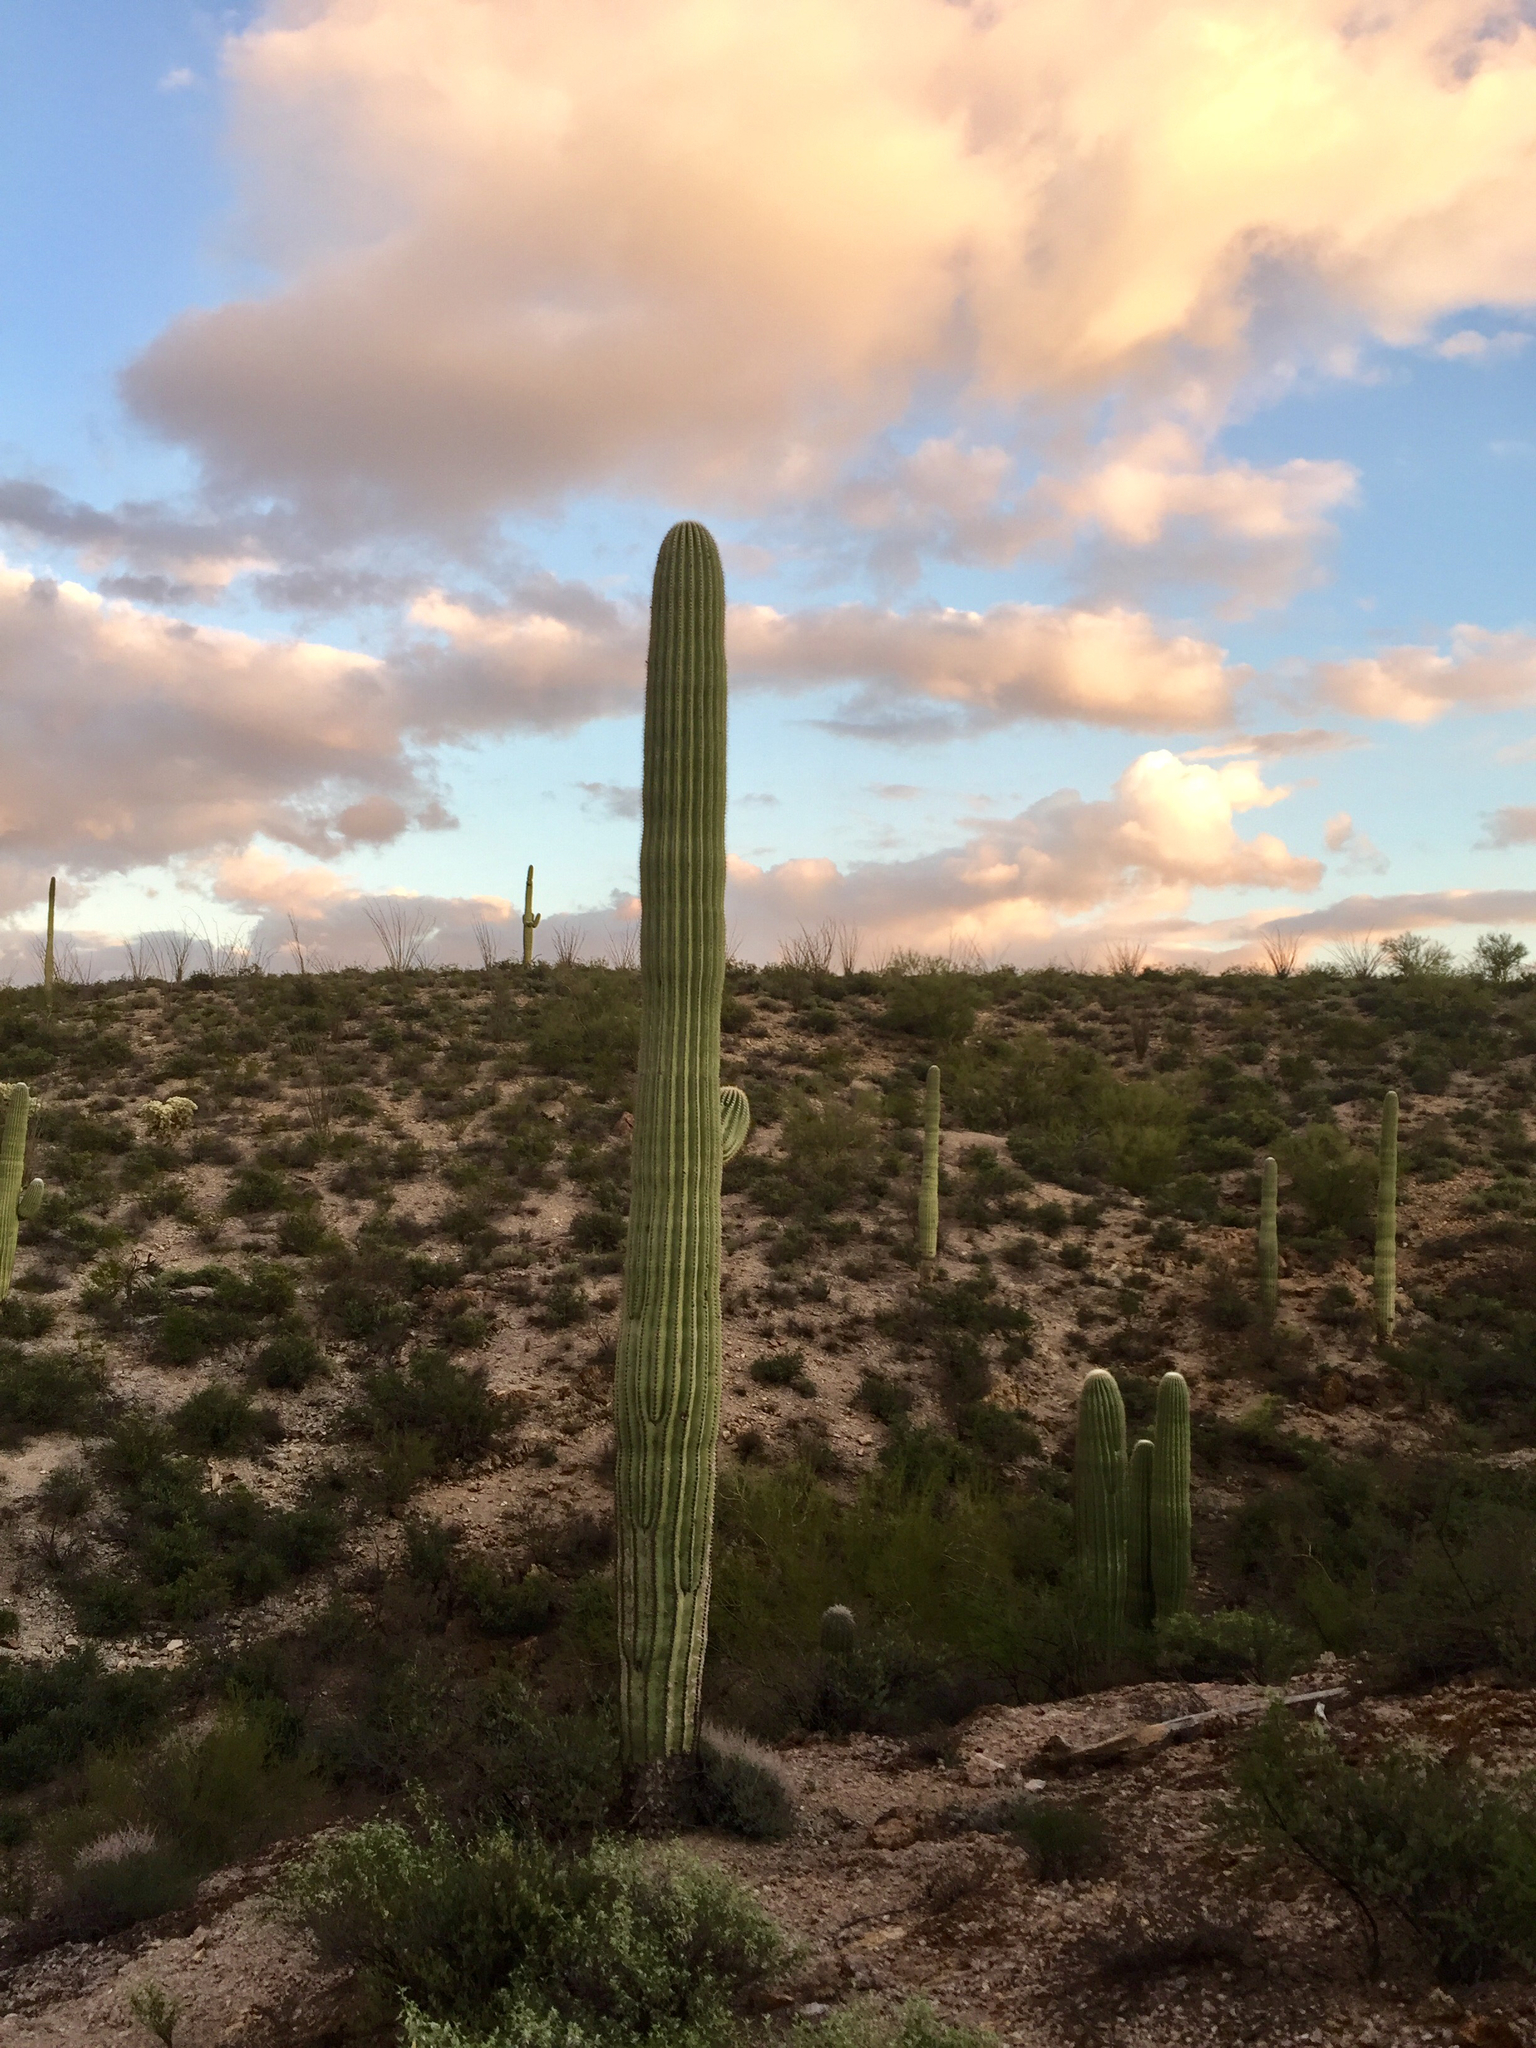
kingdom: Plantae
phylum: Tracheophyta
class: Magnoliopsida
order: Caryophyllales
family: Cactaceae
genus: Carnegiea
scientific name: Carnegiea gigantea
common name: Saguaro
